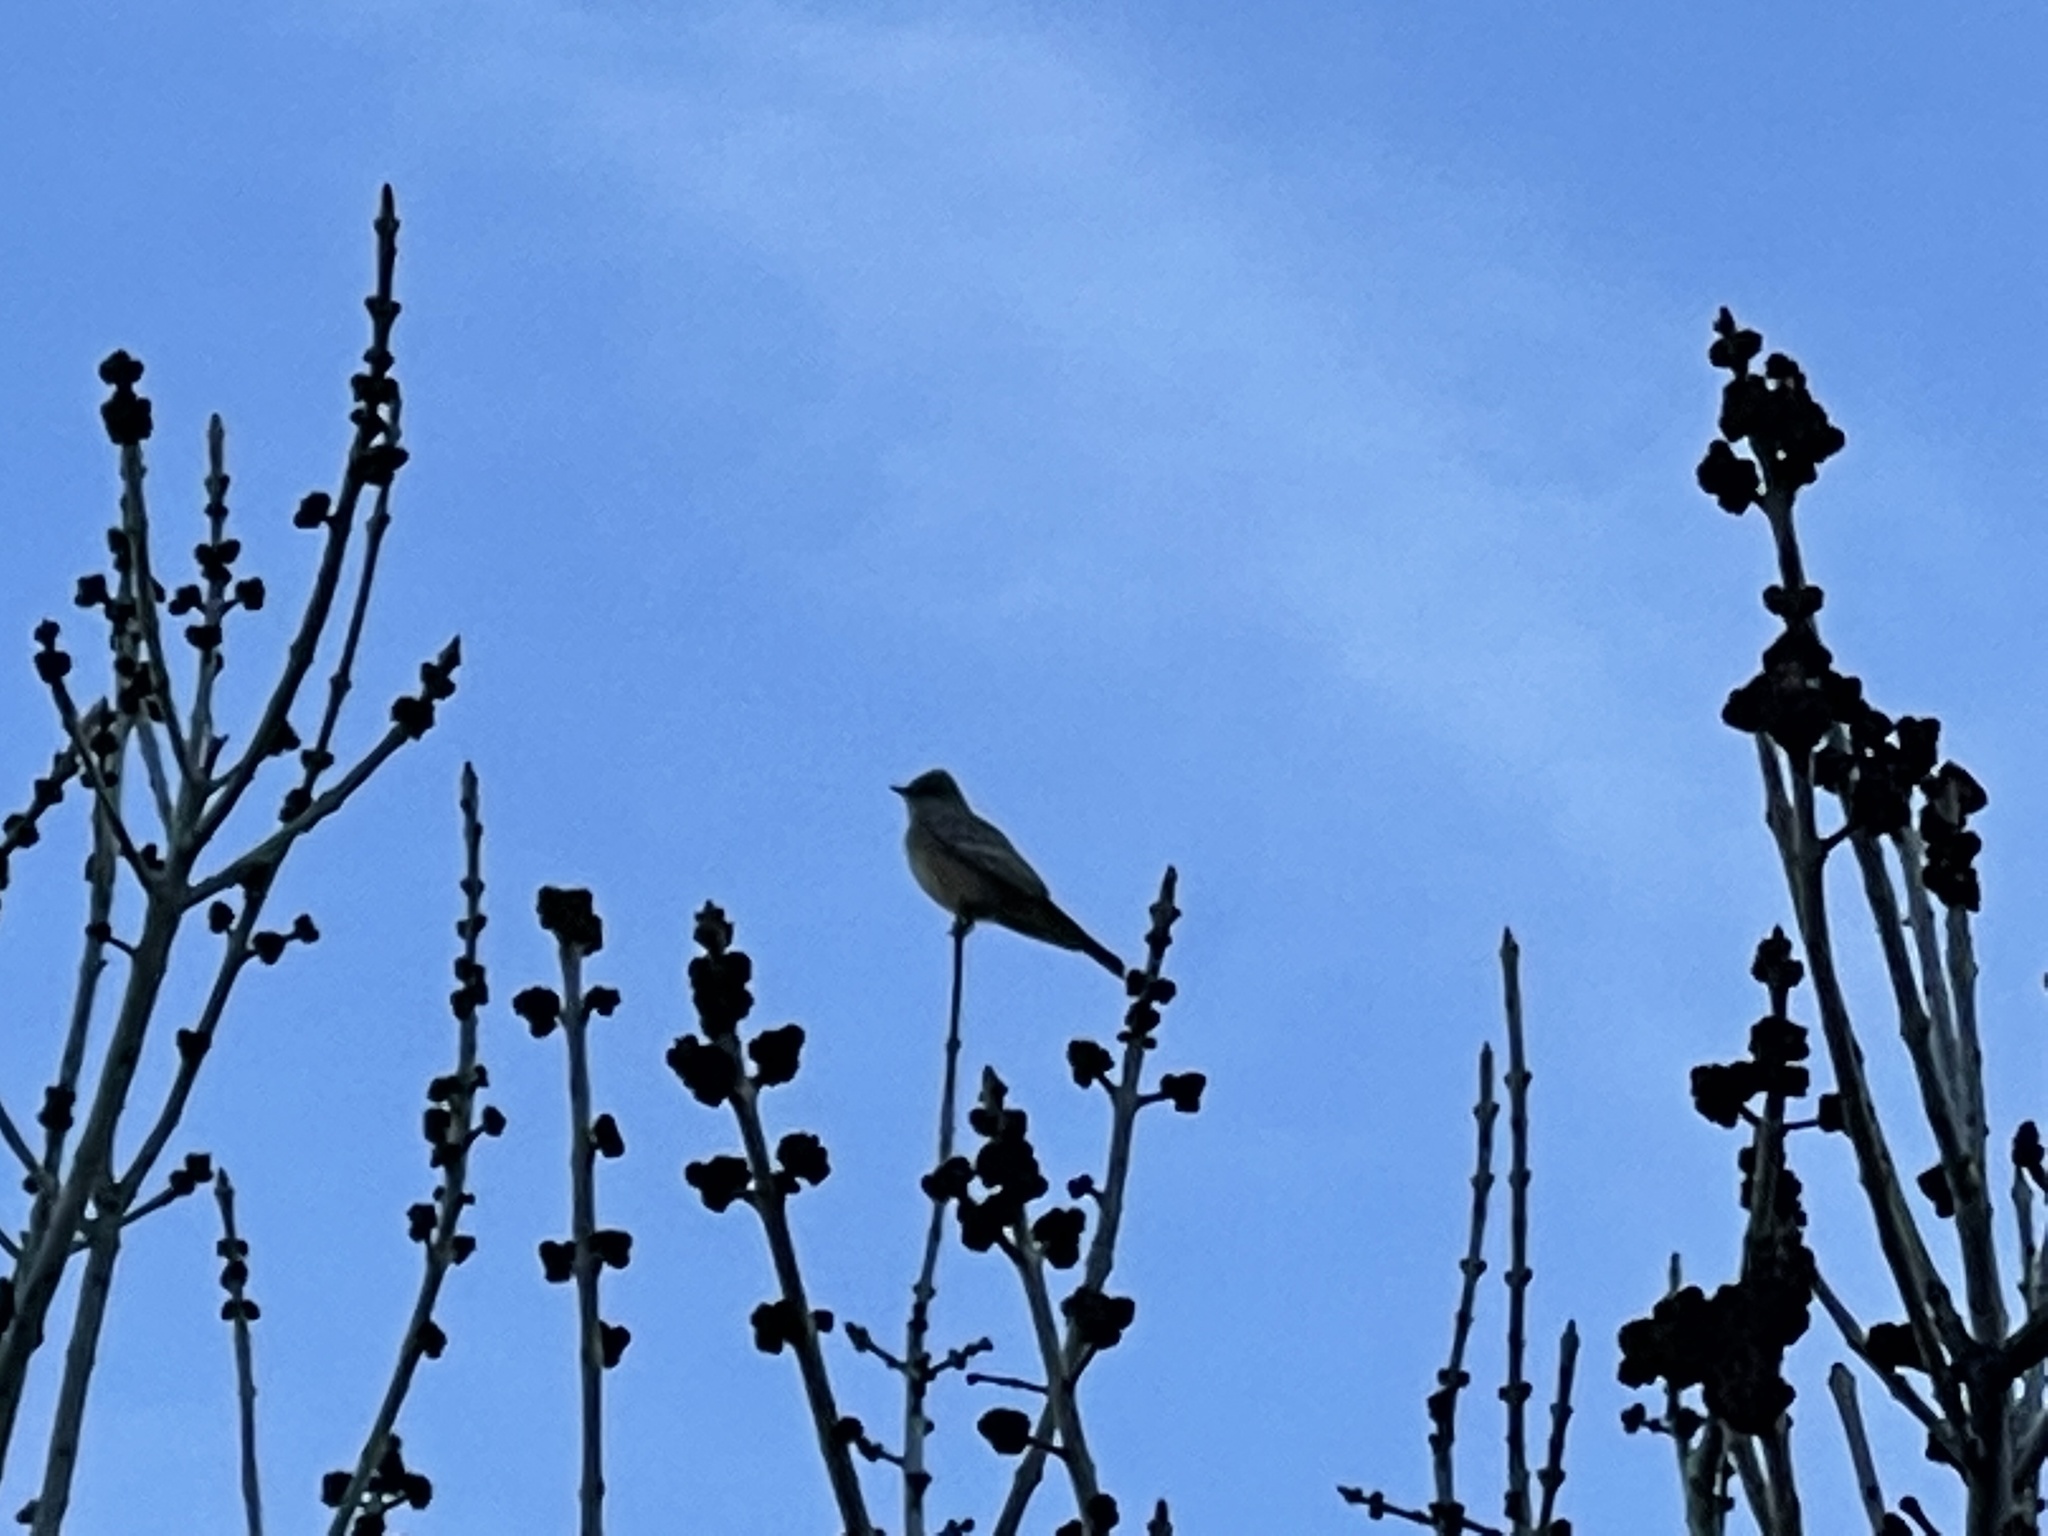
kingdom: Animalia
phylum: Chordata
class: Aves
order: Passeriformes
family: Tyrannidae
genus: Sayornis
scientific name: Sayornis saya
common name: Say's phoebe
